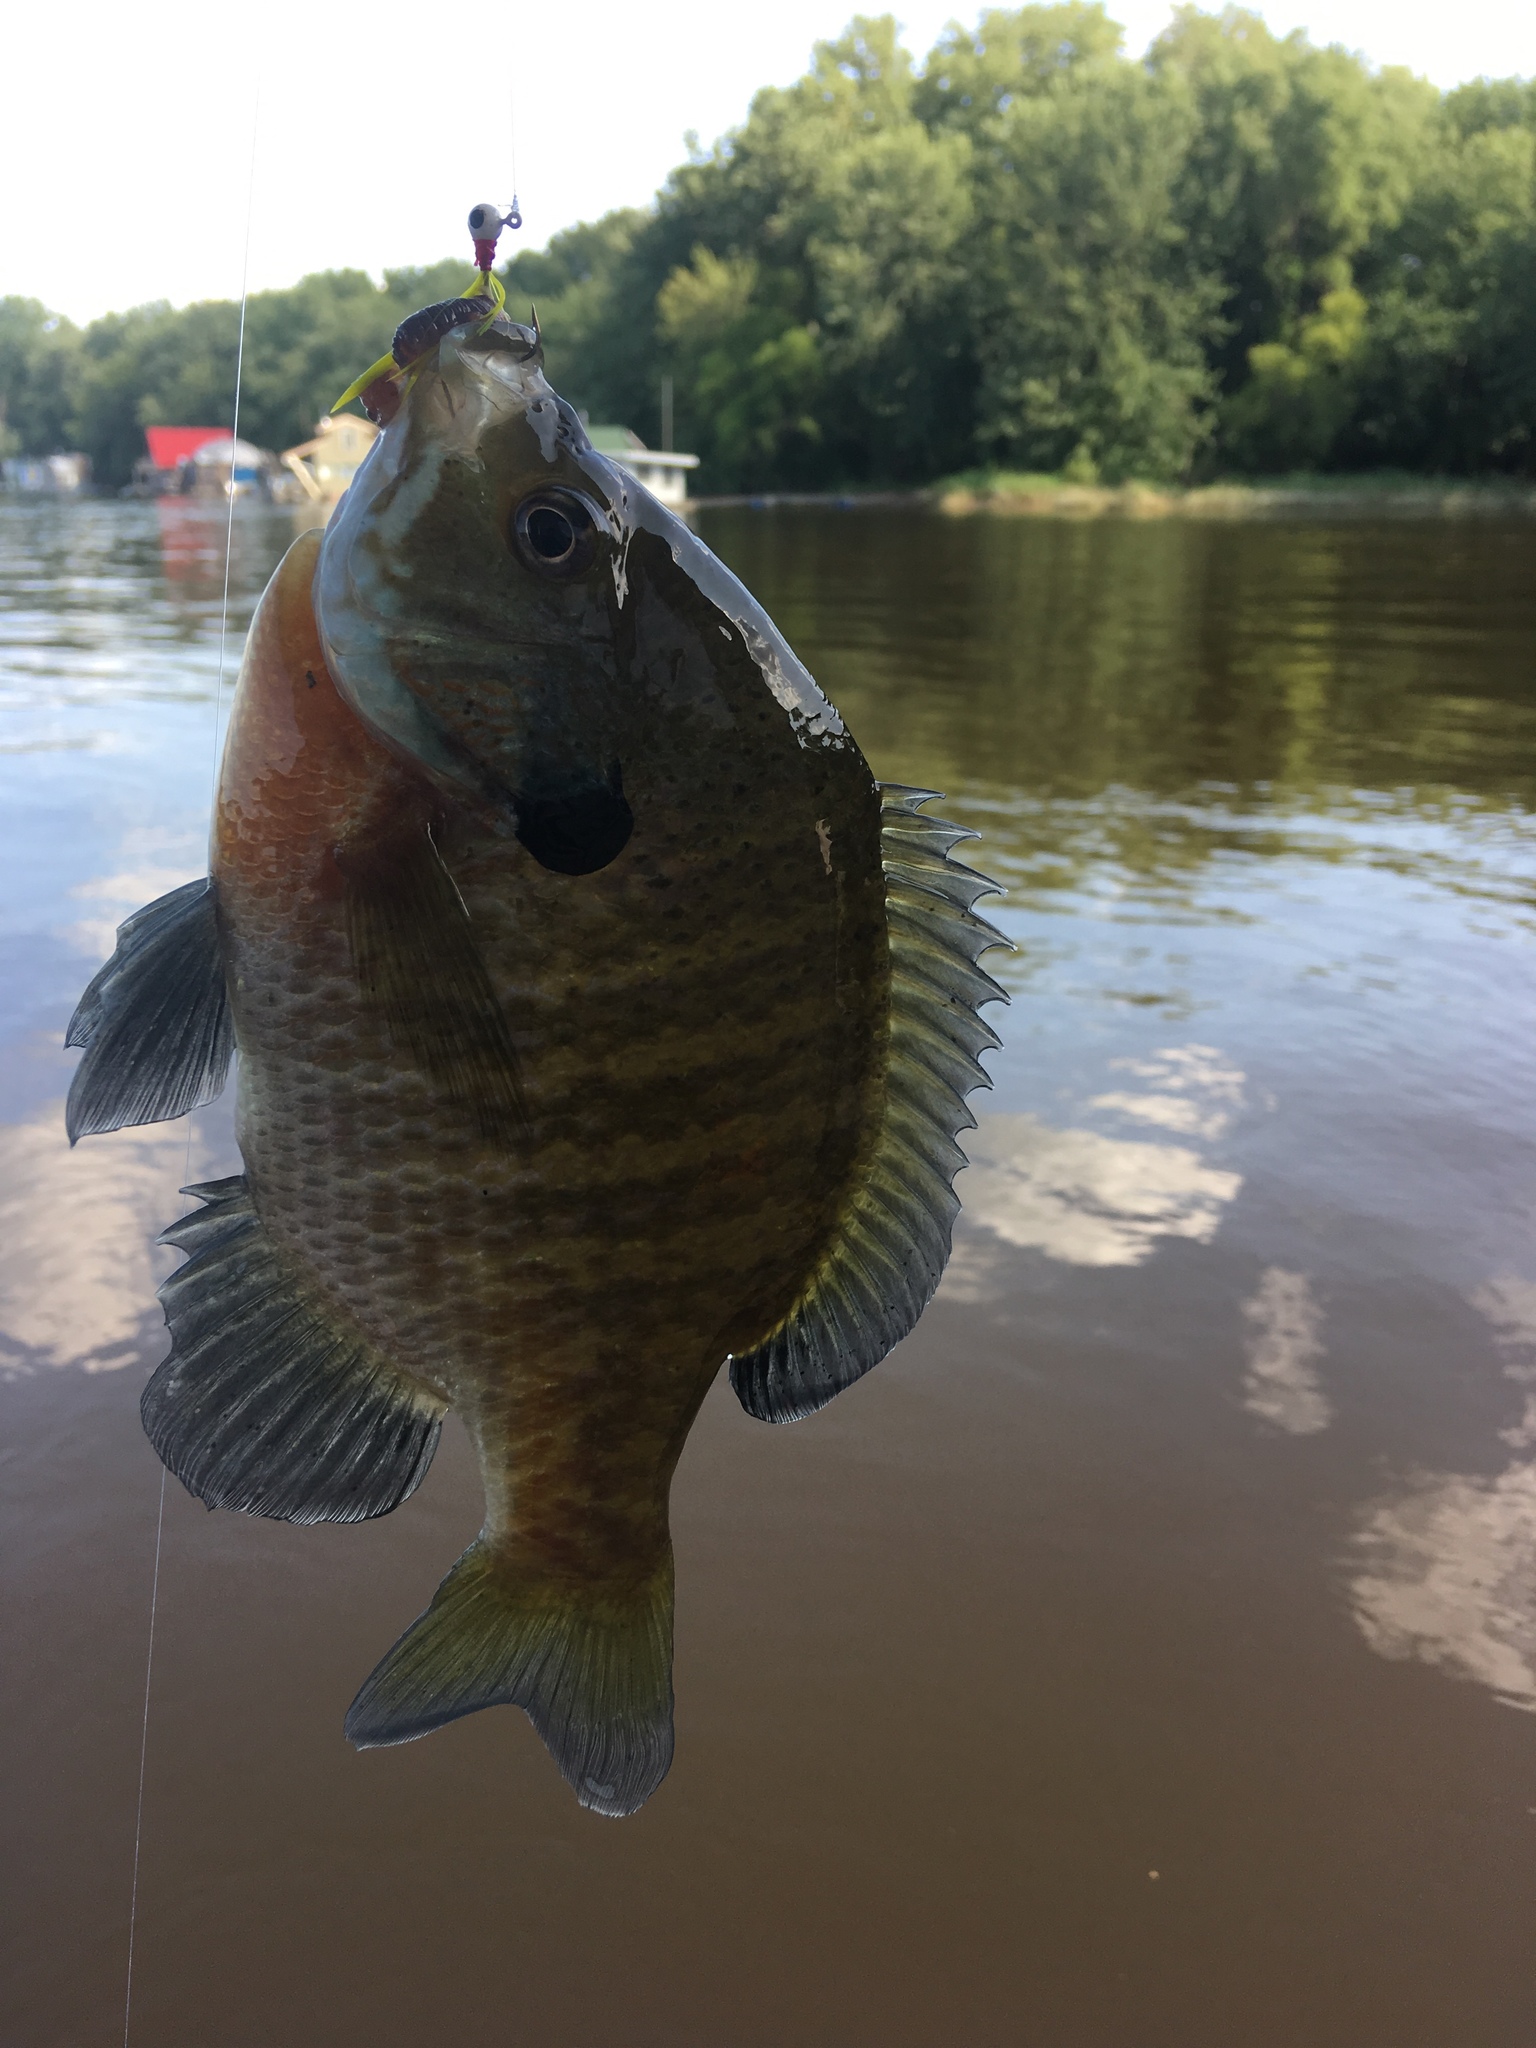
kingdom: Animalia
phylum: Chordata
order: Perciformes
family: Centrarchidae
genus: Lepomis
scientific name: Lepomis macrochirus
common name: Bluegill
